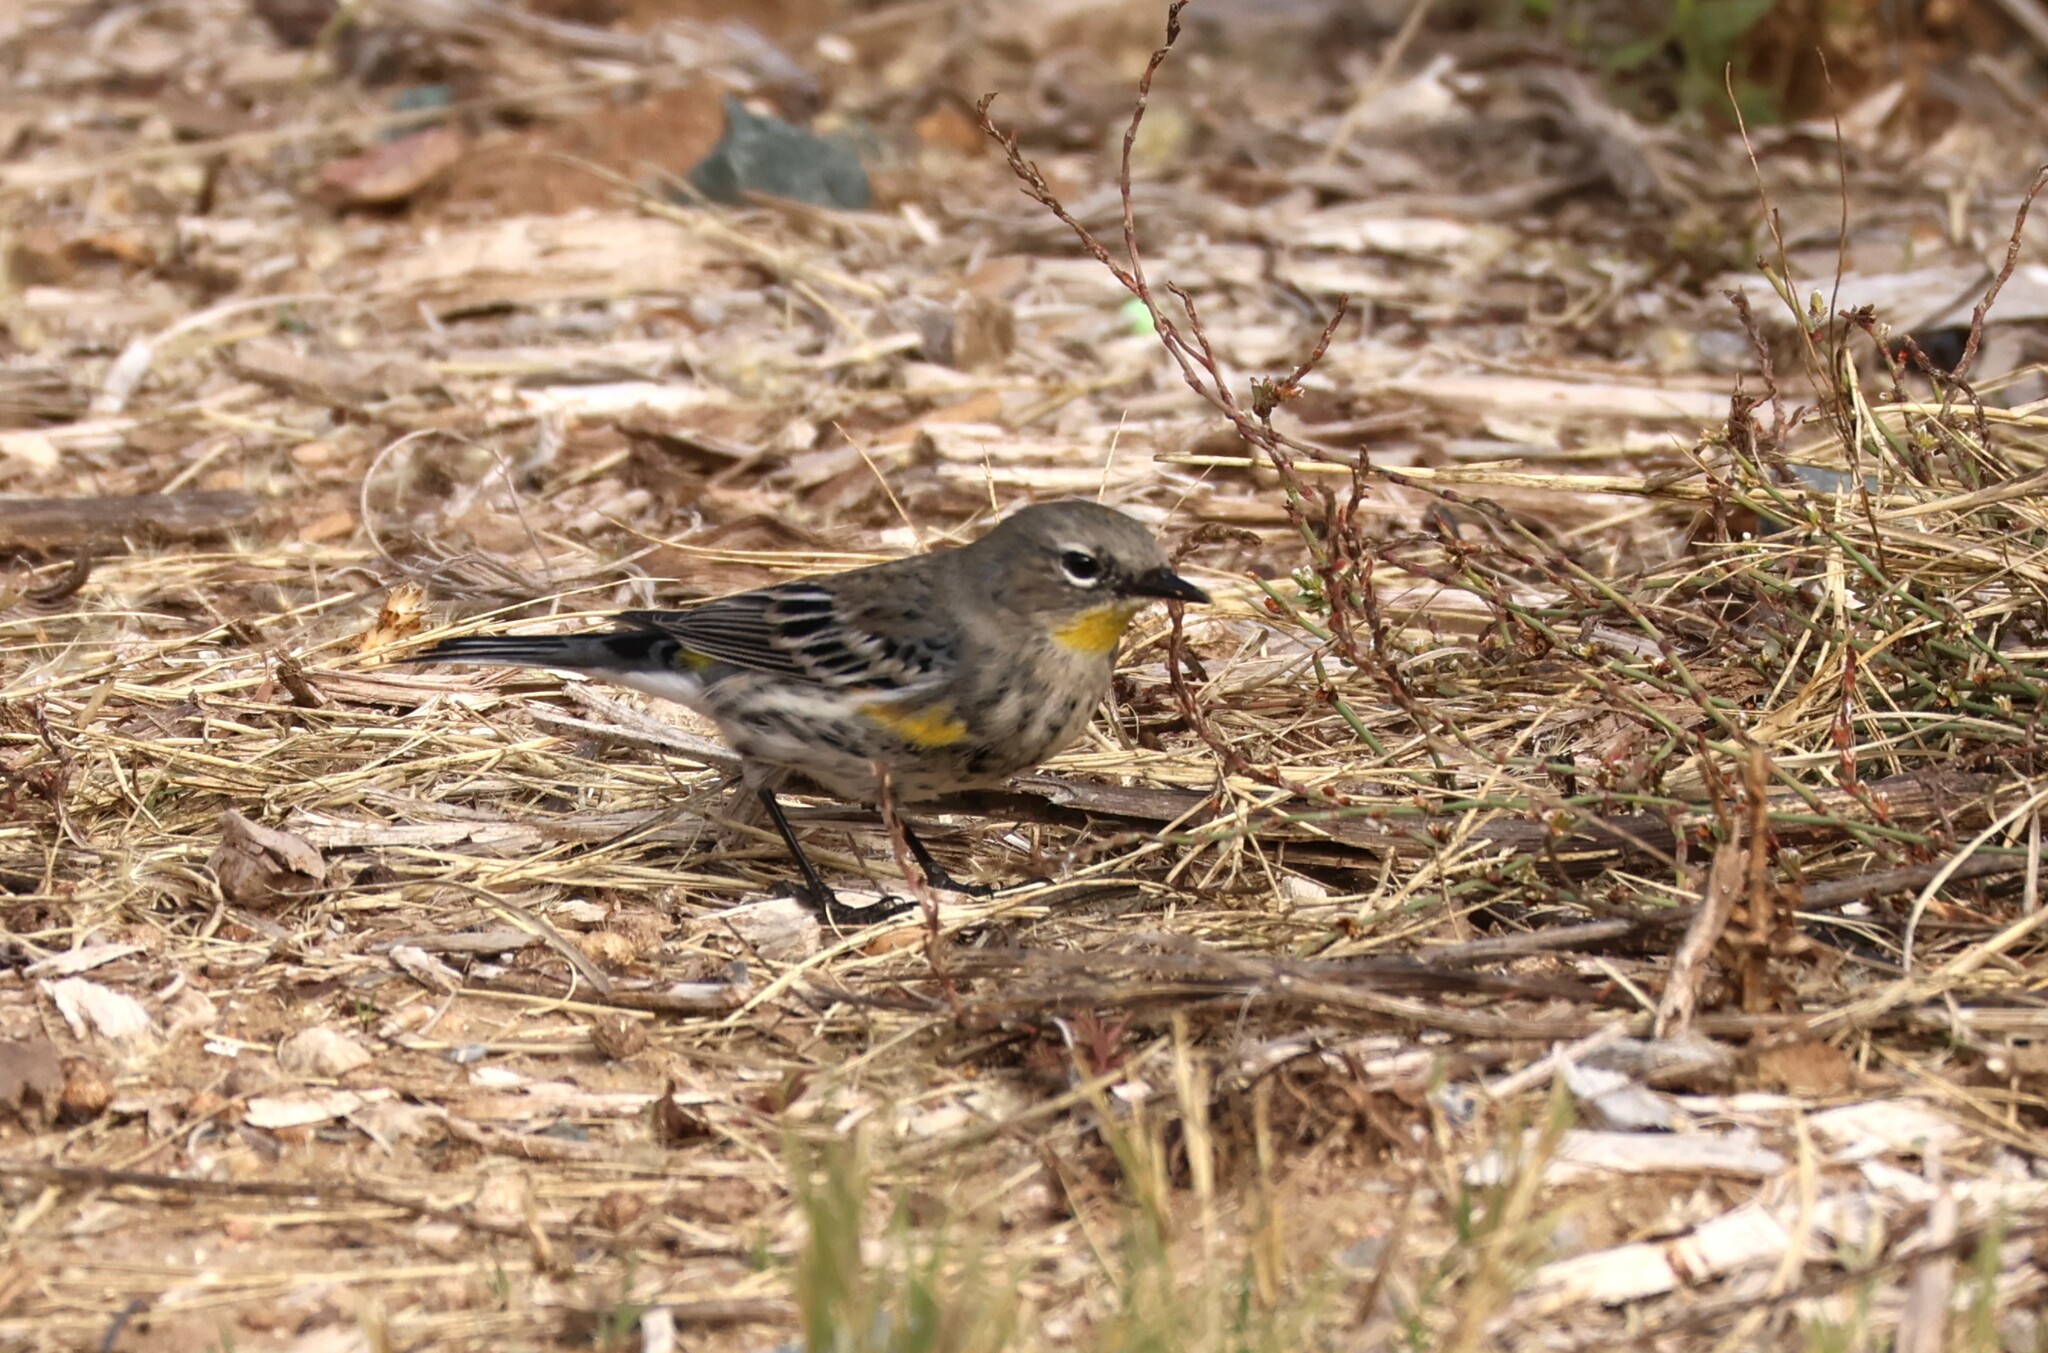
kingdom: Animalia
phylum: Chordata
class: Aves
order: Passeriformes
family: Parulidae
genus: Setophaga
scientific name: Setophaga auduboni
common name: Audubon's warbler
